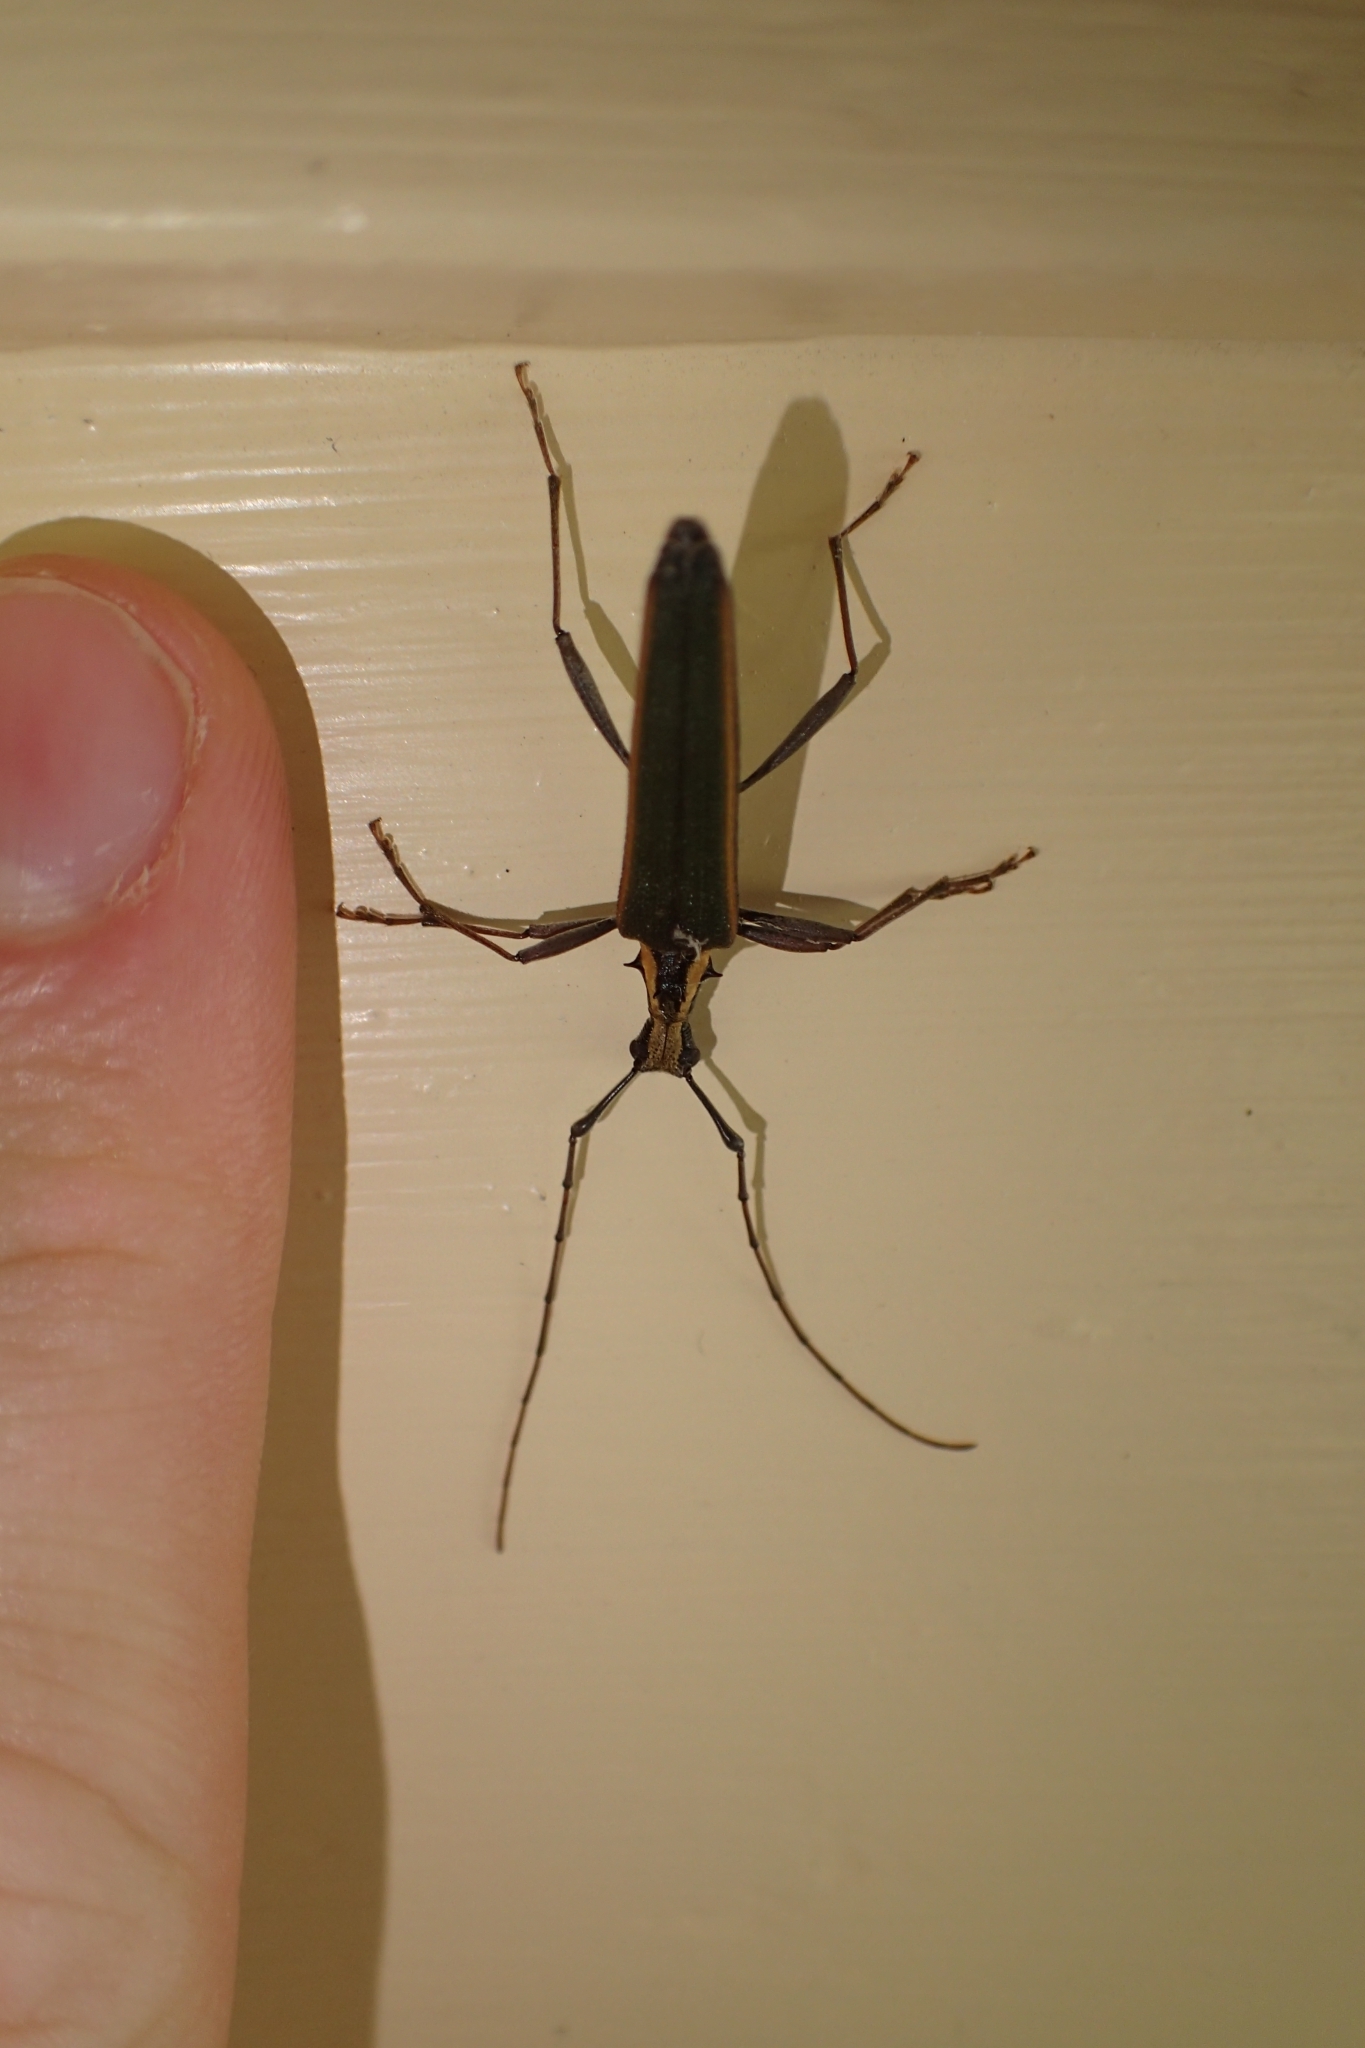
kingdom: Animalia
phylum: Arthropoda
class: Insecta
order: Coleoptera
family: Cerambycidae
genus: Calliprason
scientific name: Calliprason marginatum
